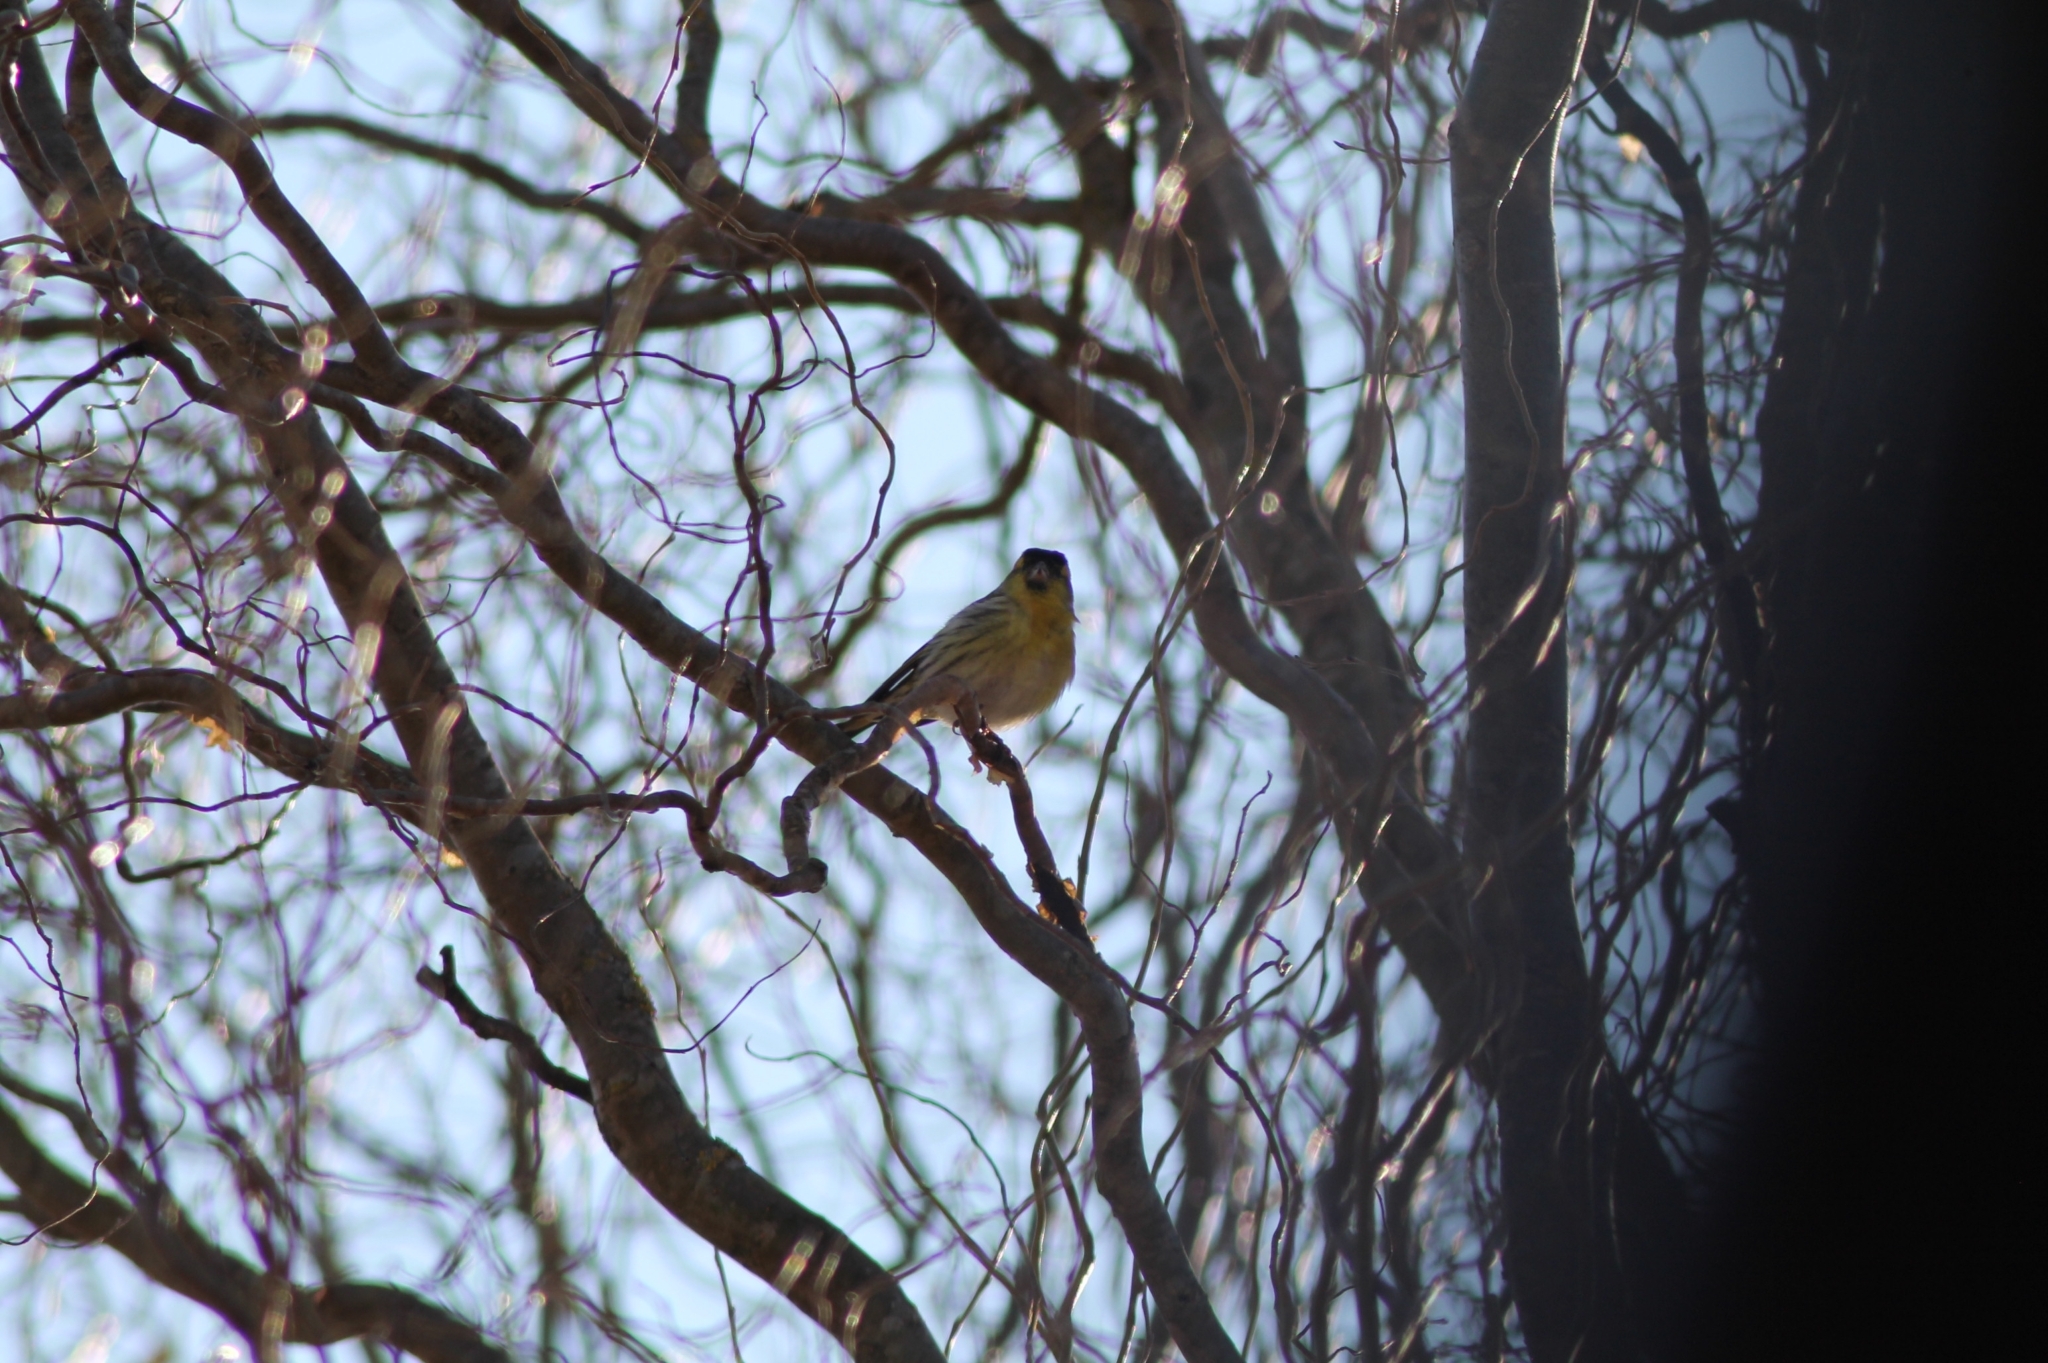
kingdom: Animalia
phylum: Chordata
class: Aves
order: Passeriformes
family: Fringillidae
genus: Spinus
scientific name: Spinus spinus
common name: Eurasian siskin
